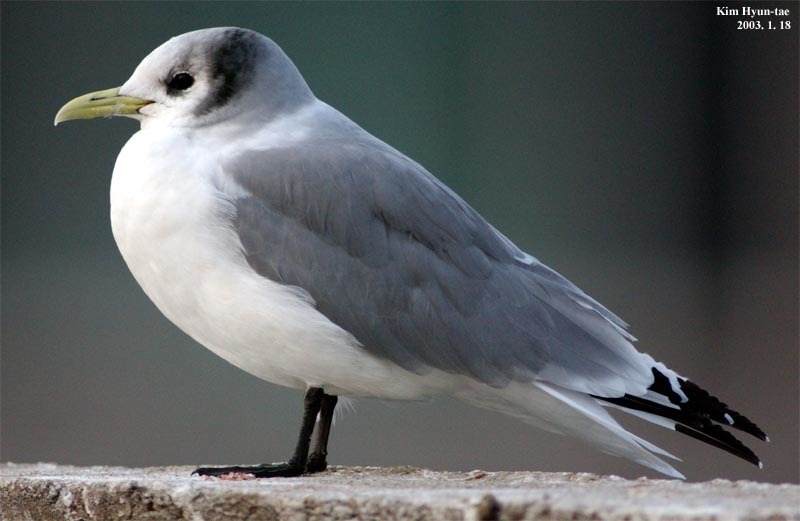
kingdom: Animalia
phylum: Chordata
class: Aves
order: Charadriiformes
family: Laridae
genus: Rissa
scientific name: Rissa tridactyla
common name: Black-legged kittiwake
